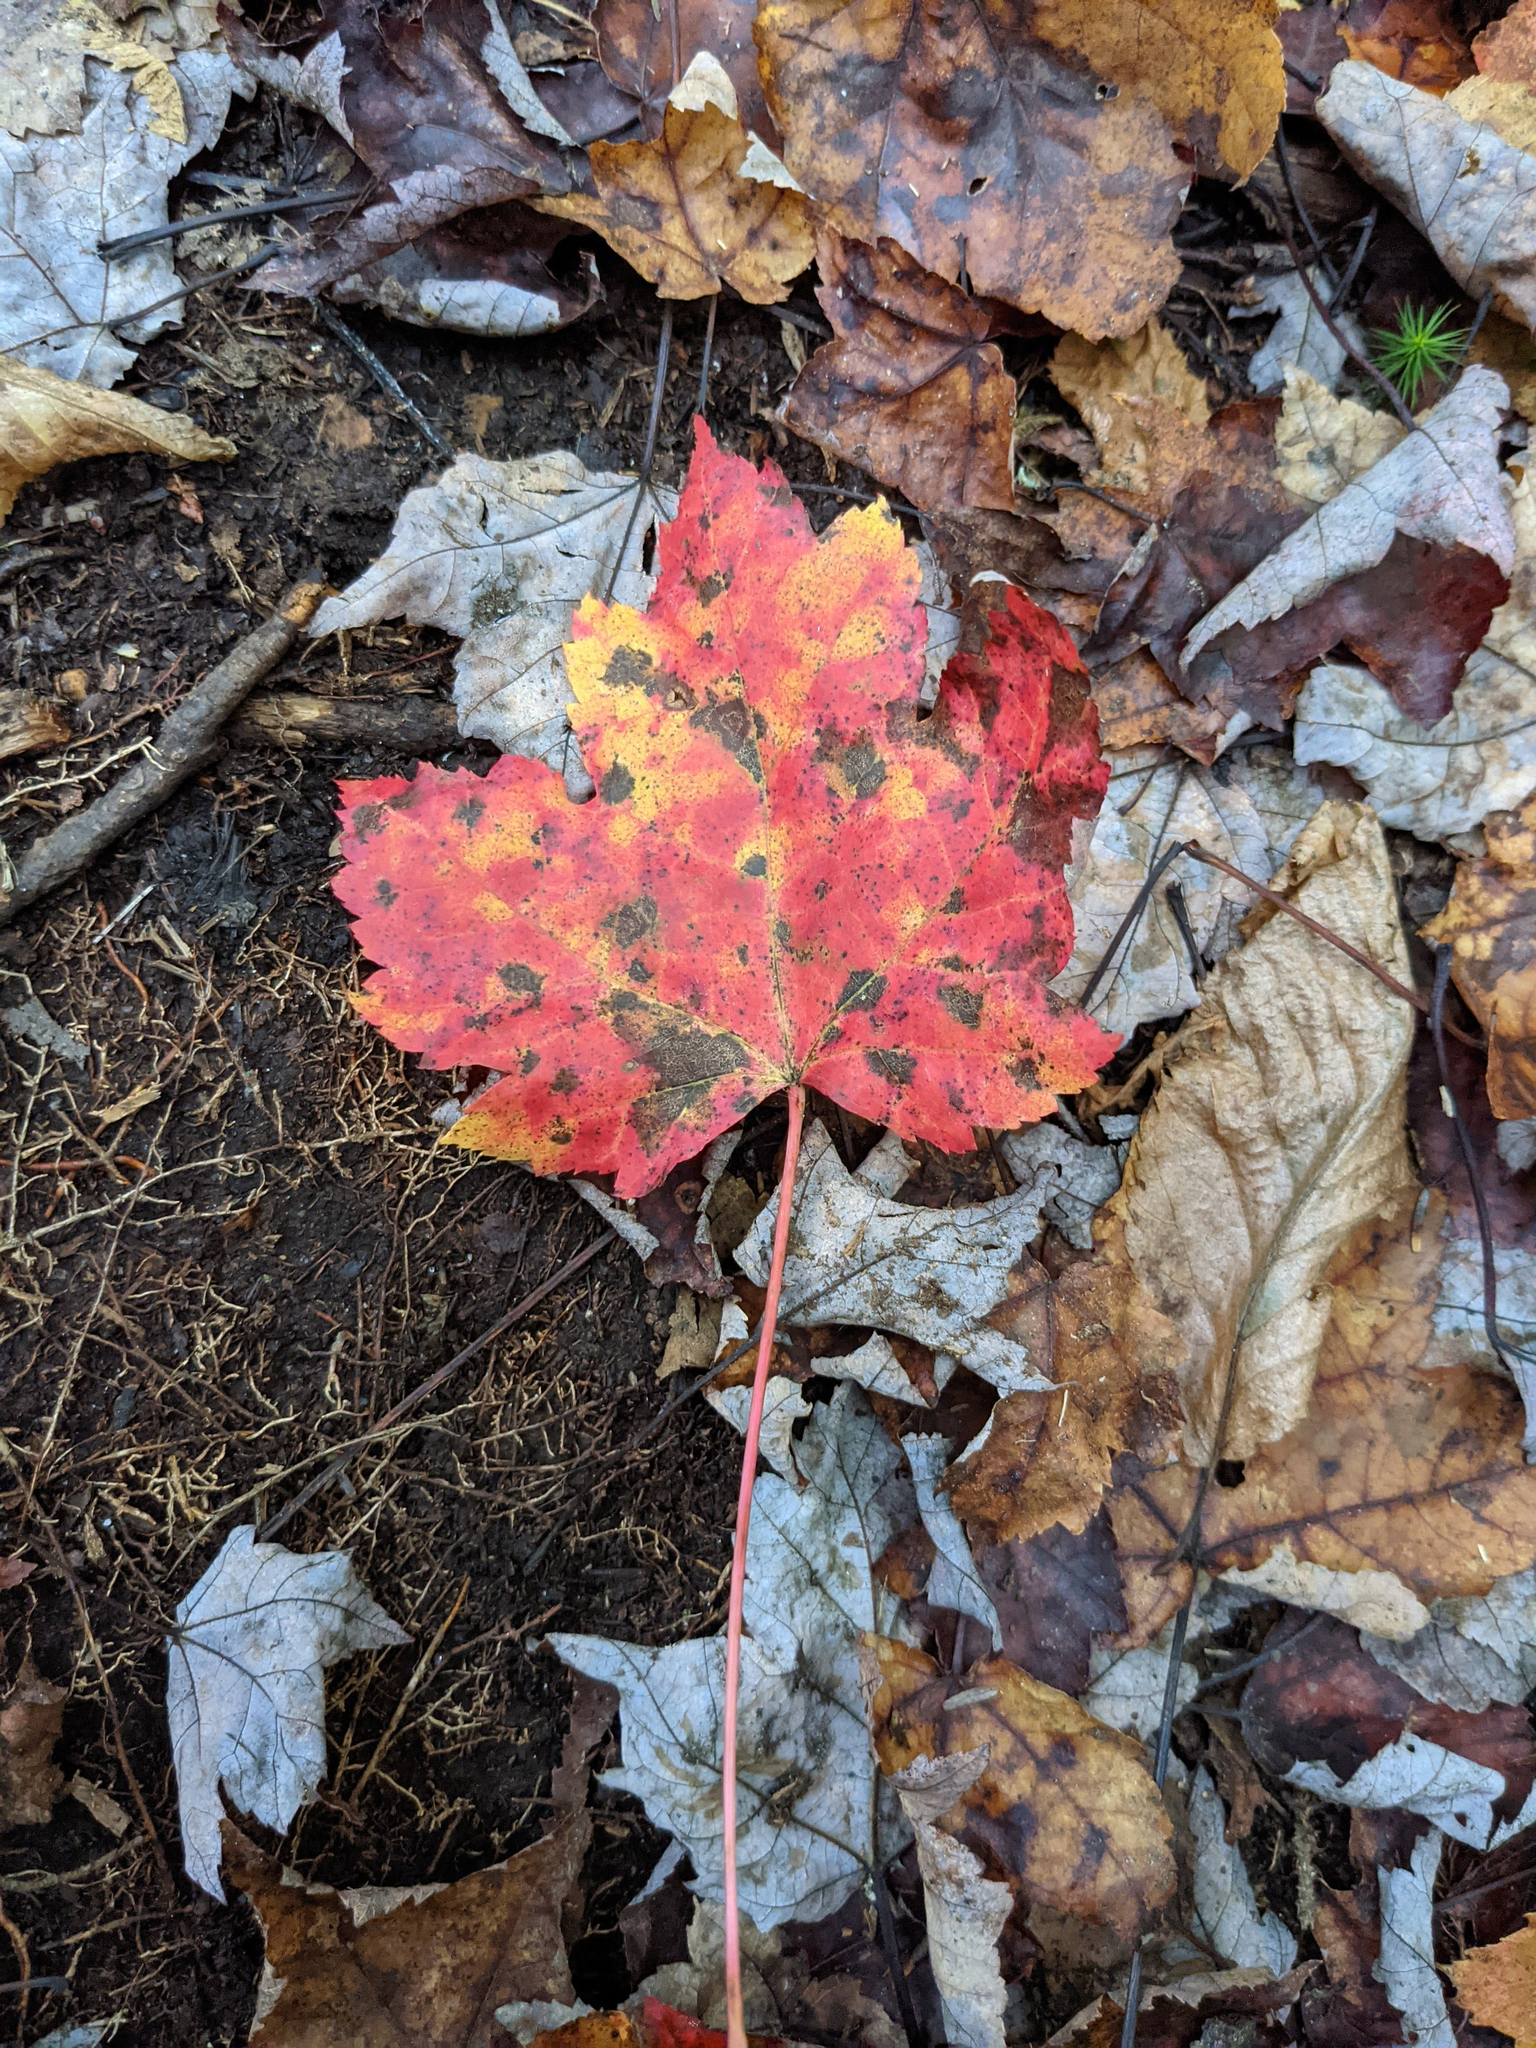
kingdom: Plantae
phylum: Tracheophyta
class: Magnoliopsida
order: Sapindales
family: Sapindaceae
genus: Acer
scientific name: Acer rubrum
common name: Red maple
